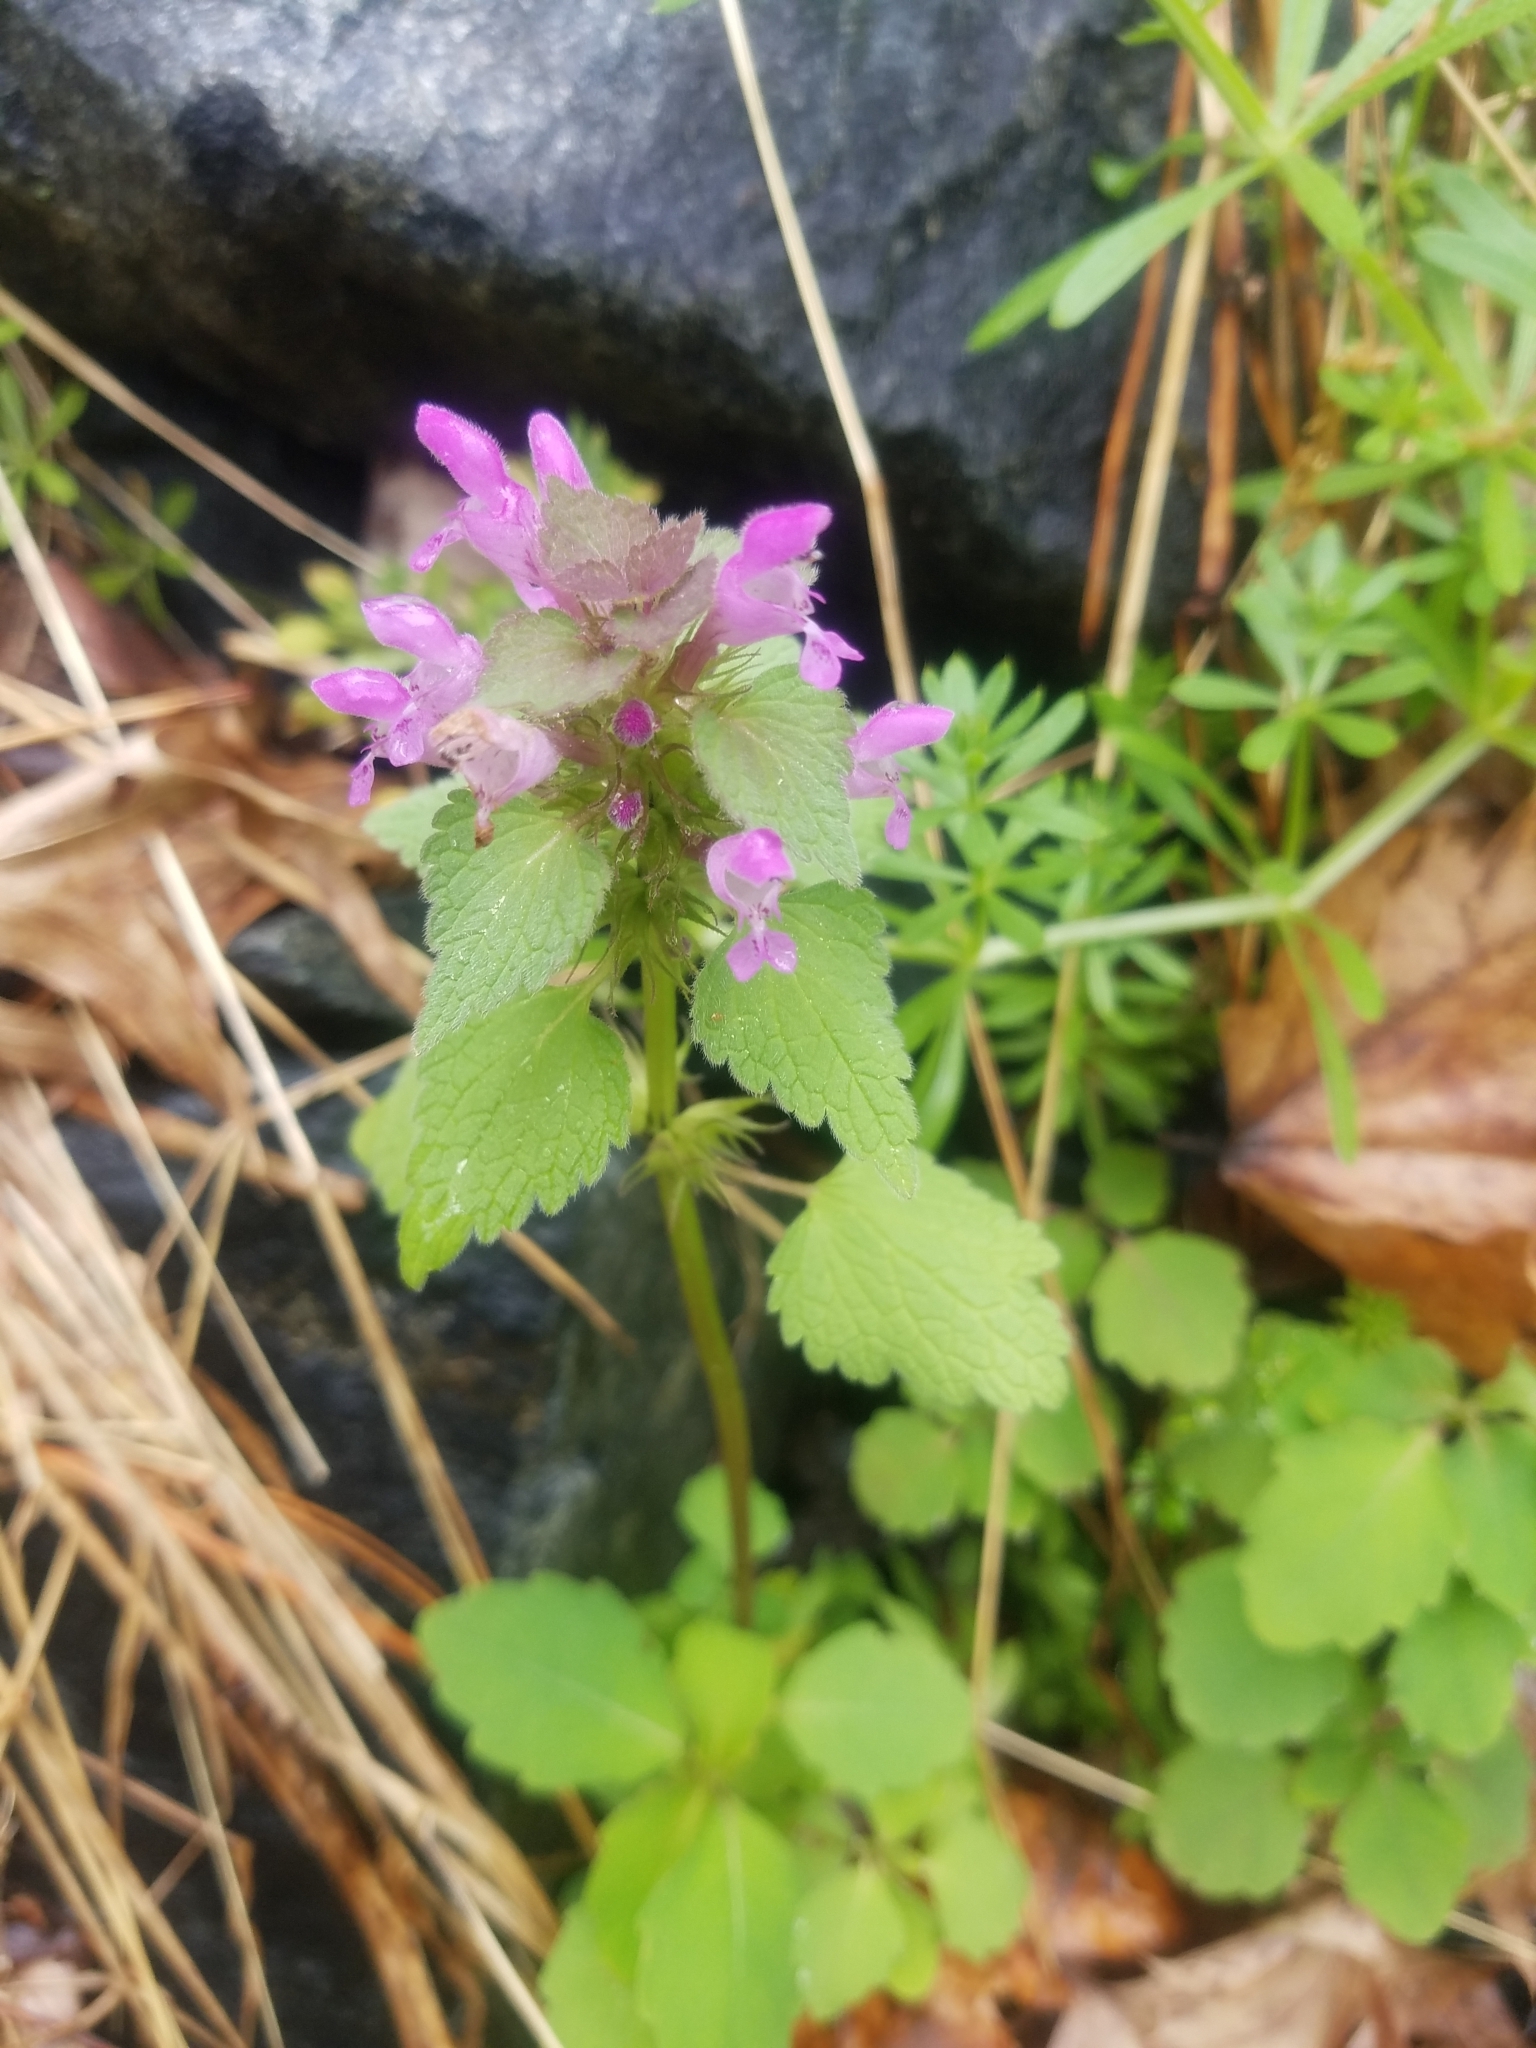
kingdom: Plantae
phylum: Tracheophyta
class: Magnoliopsida
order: Lamiales
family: Lamiaceae
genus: Lamium
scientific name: Lamium purpureum
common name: Red dead-nettle
